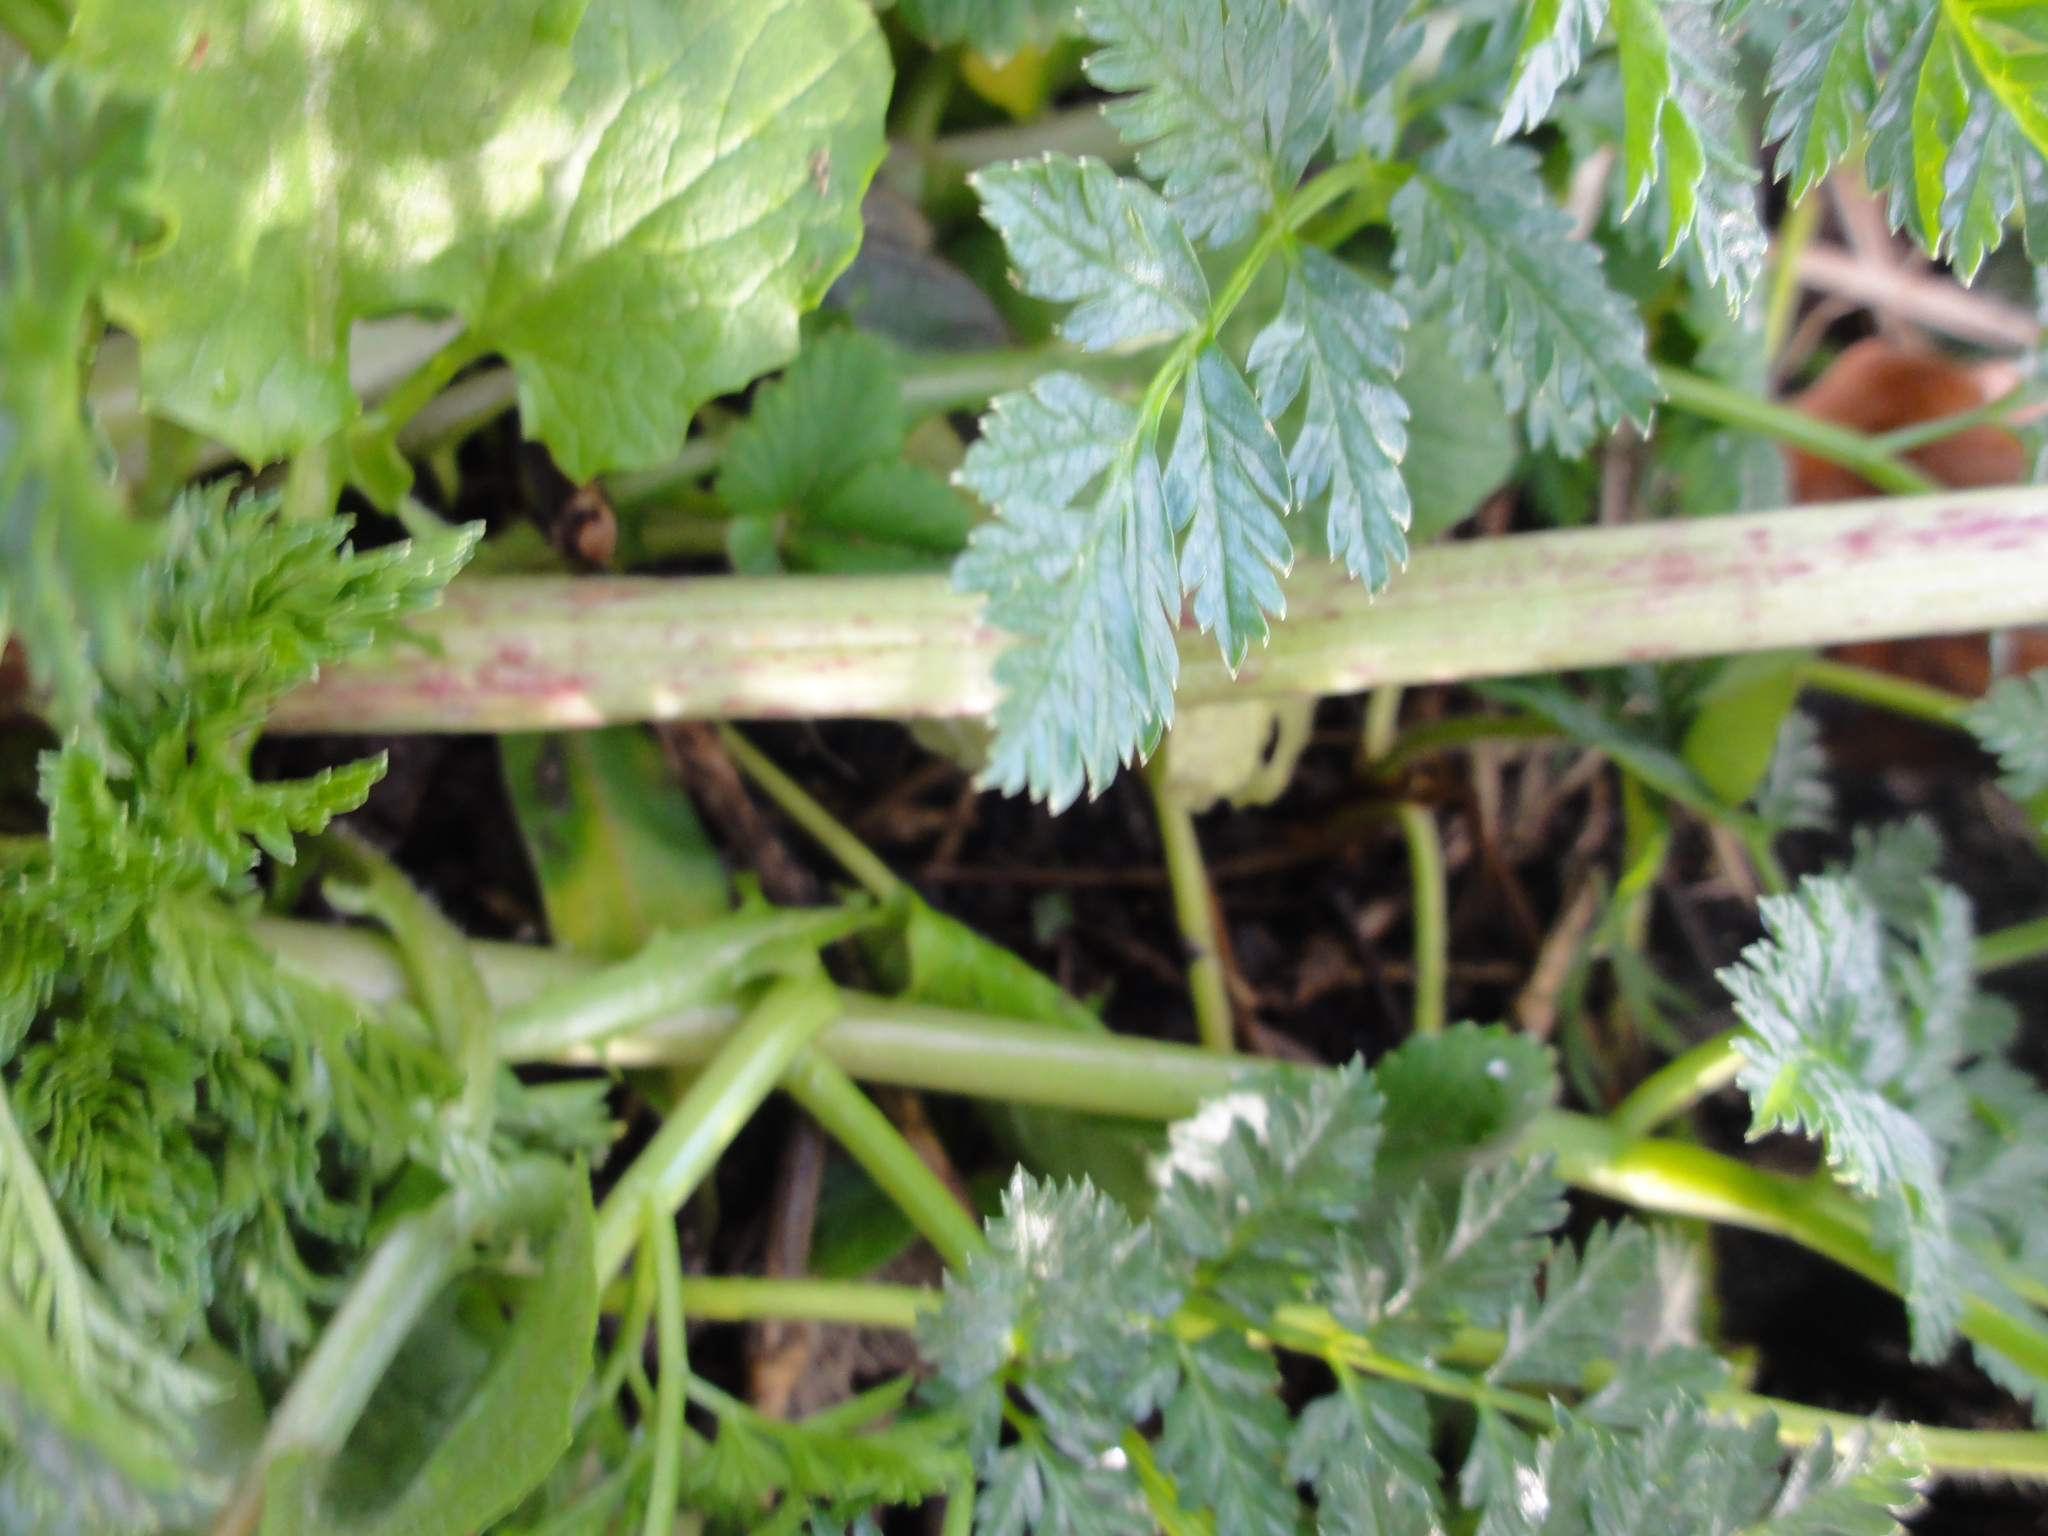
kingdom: Plantae
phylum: Tracheophyta
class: Magnoliopsida
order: Apiales
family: Apiaceae
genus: Conium
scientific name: Conium maculatum
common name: Hemlock
